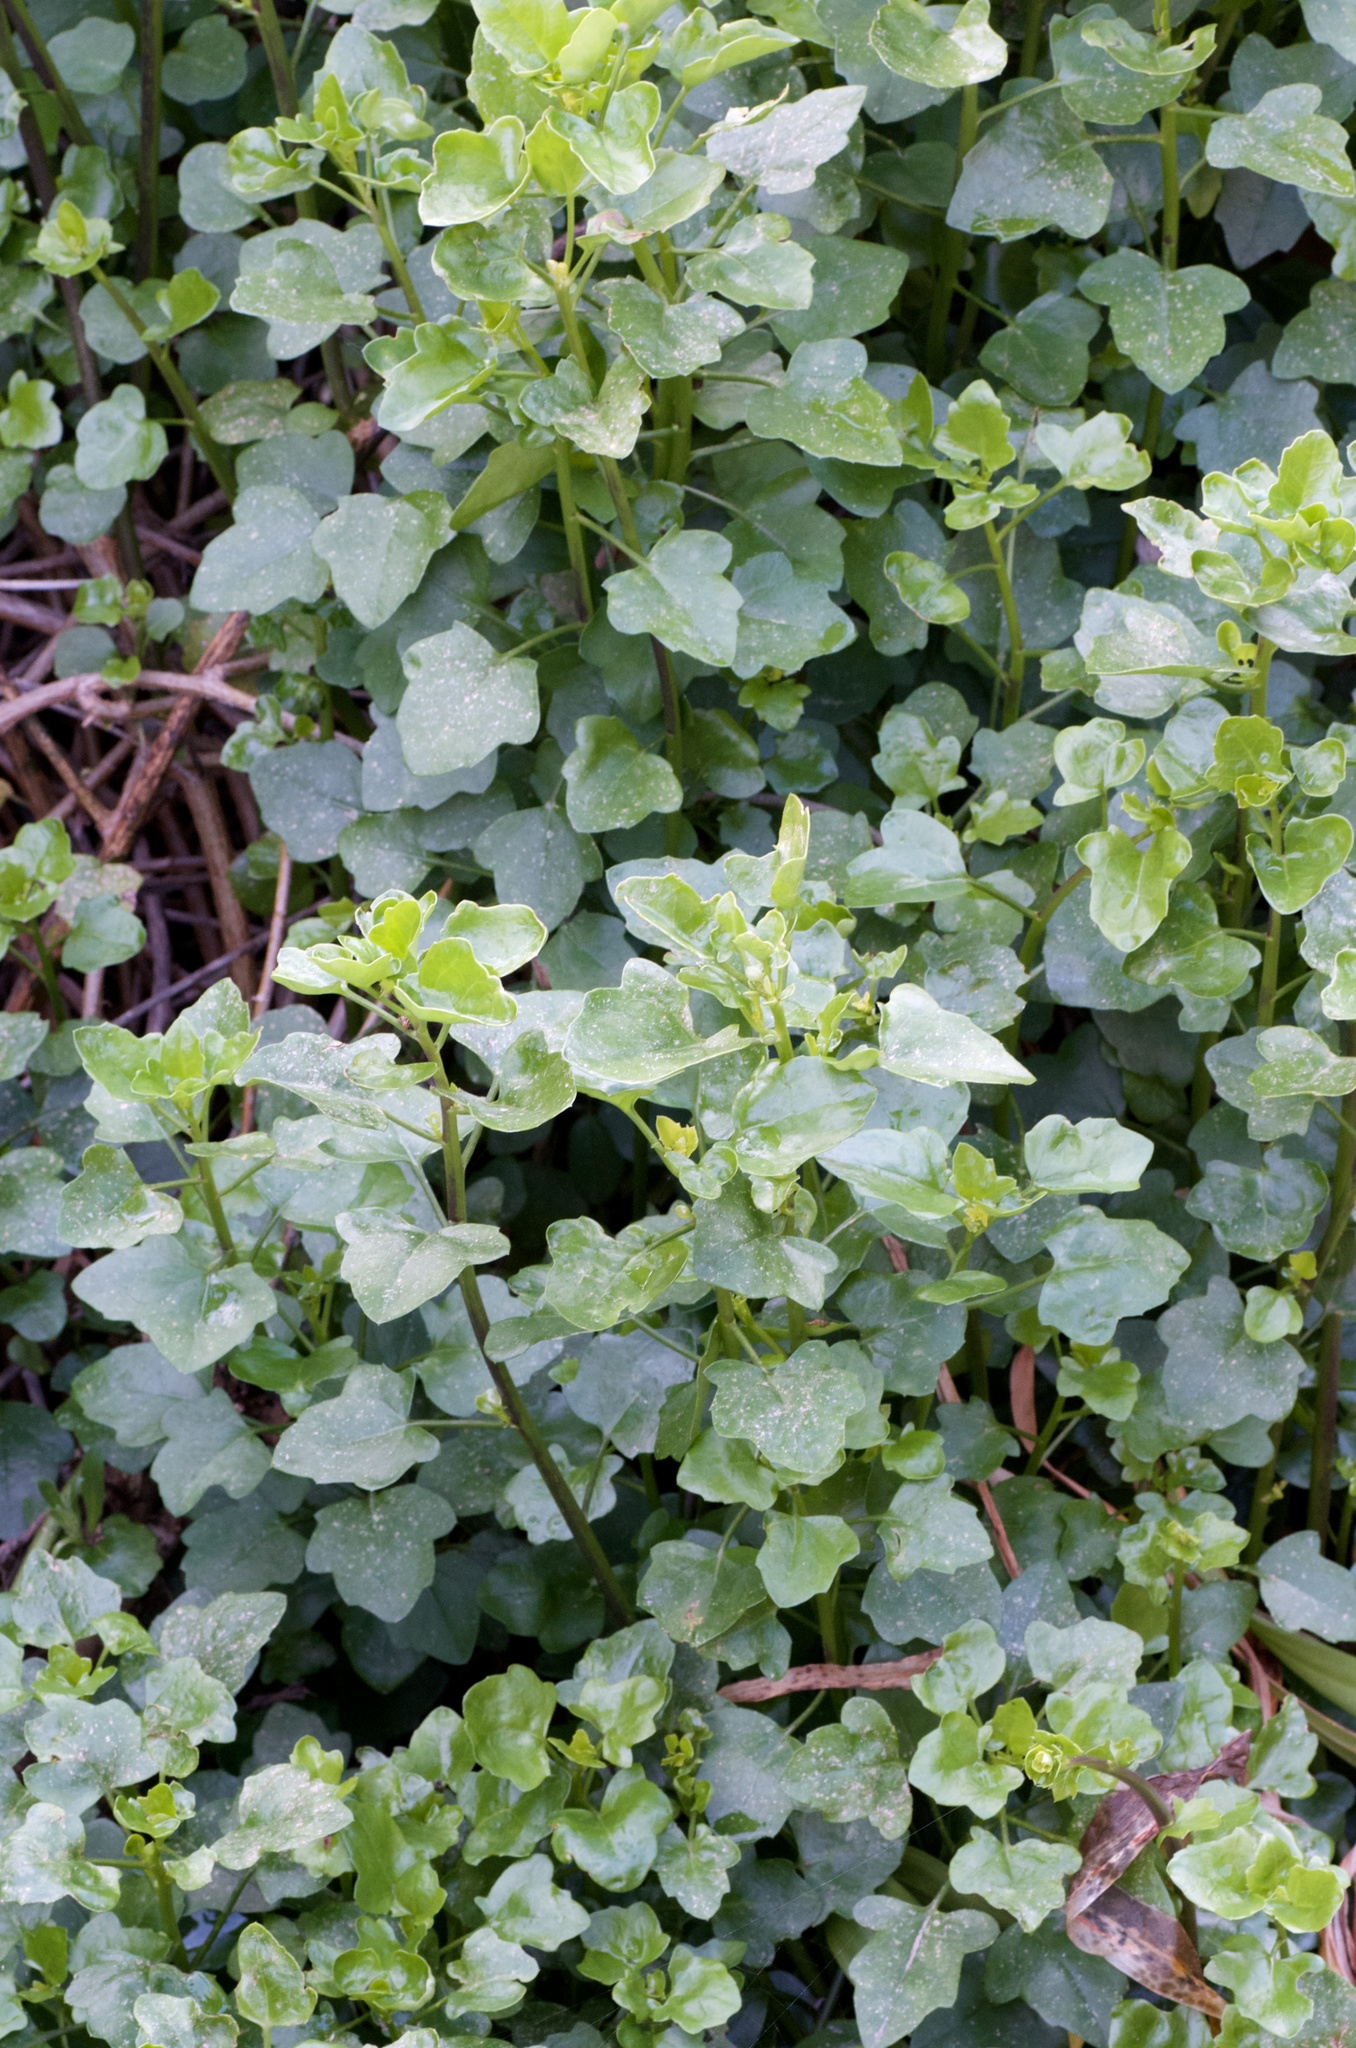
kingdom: Plantae
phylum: Tracheophyta
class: Magnoliopsida
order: Asterales
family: Asteraceae
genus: Senecio
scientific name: Senecio angulatus
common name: Climbing groundsel
